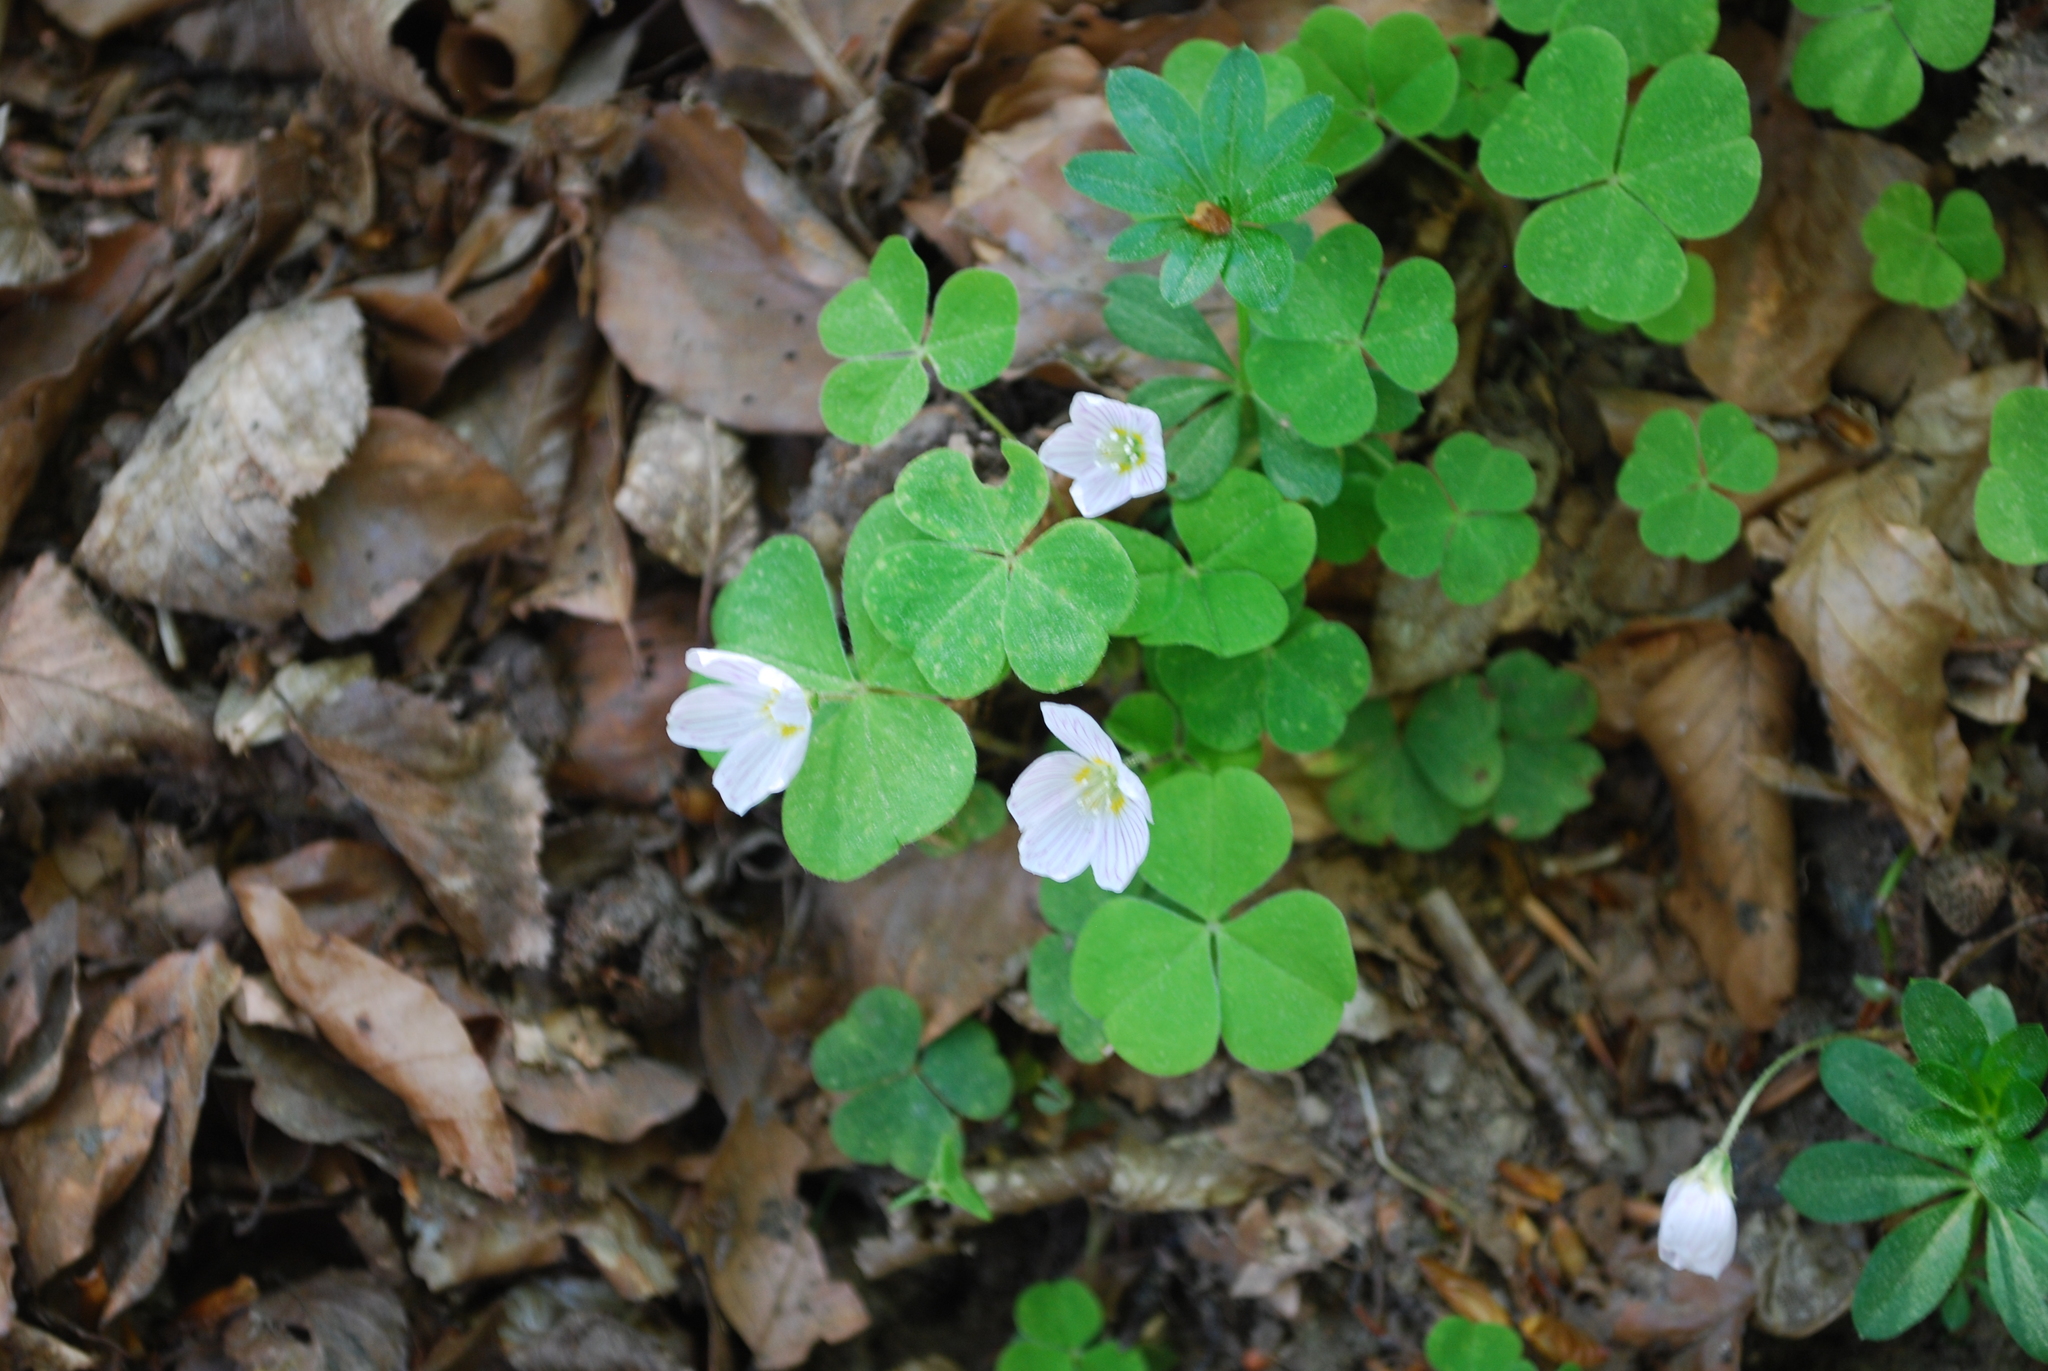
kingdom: Plantae
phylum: Tracheophyta
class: Magnoliopsida
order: Oxalidales
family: Oxalidaceae
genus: Oxalis
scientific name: Oxalis acetosella
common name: Wood-sorrel
